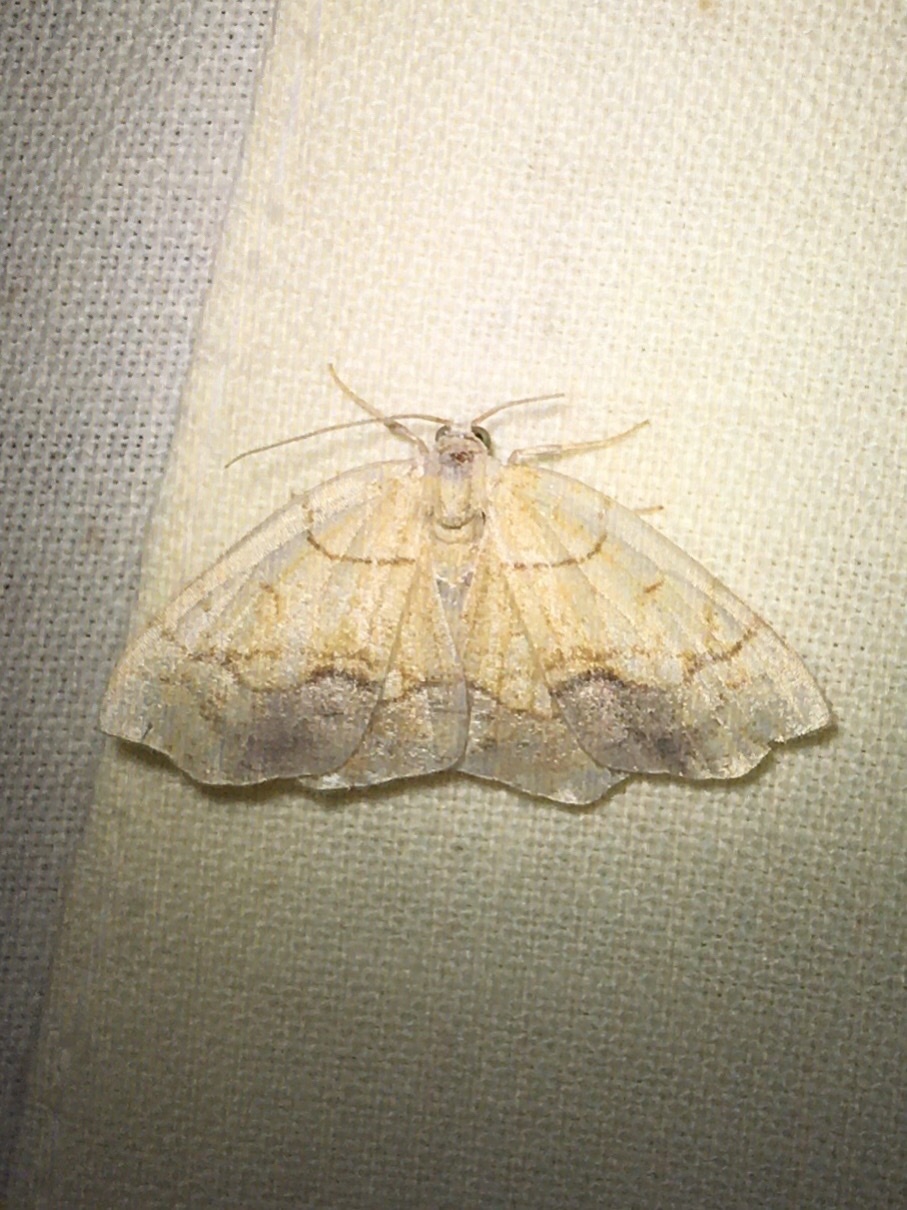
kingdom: Animalia
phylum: Arthropoda
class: Insecta
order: Lepidoptera
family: Geometridae
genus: Nematocampa
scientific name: Nematocampa resistaria
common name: Horned spanworm moth
